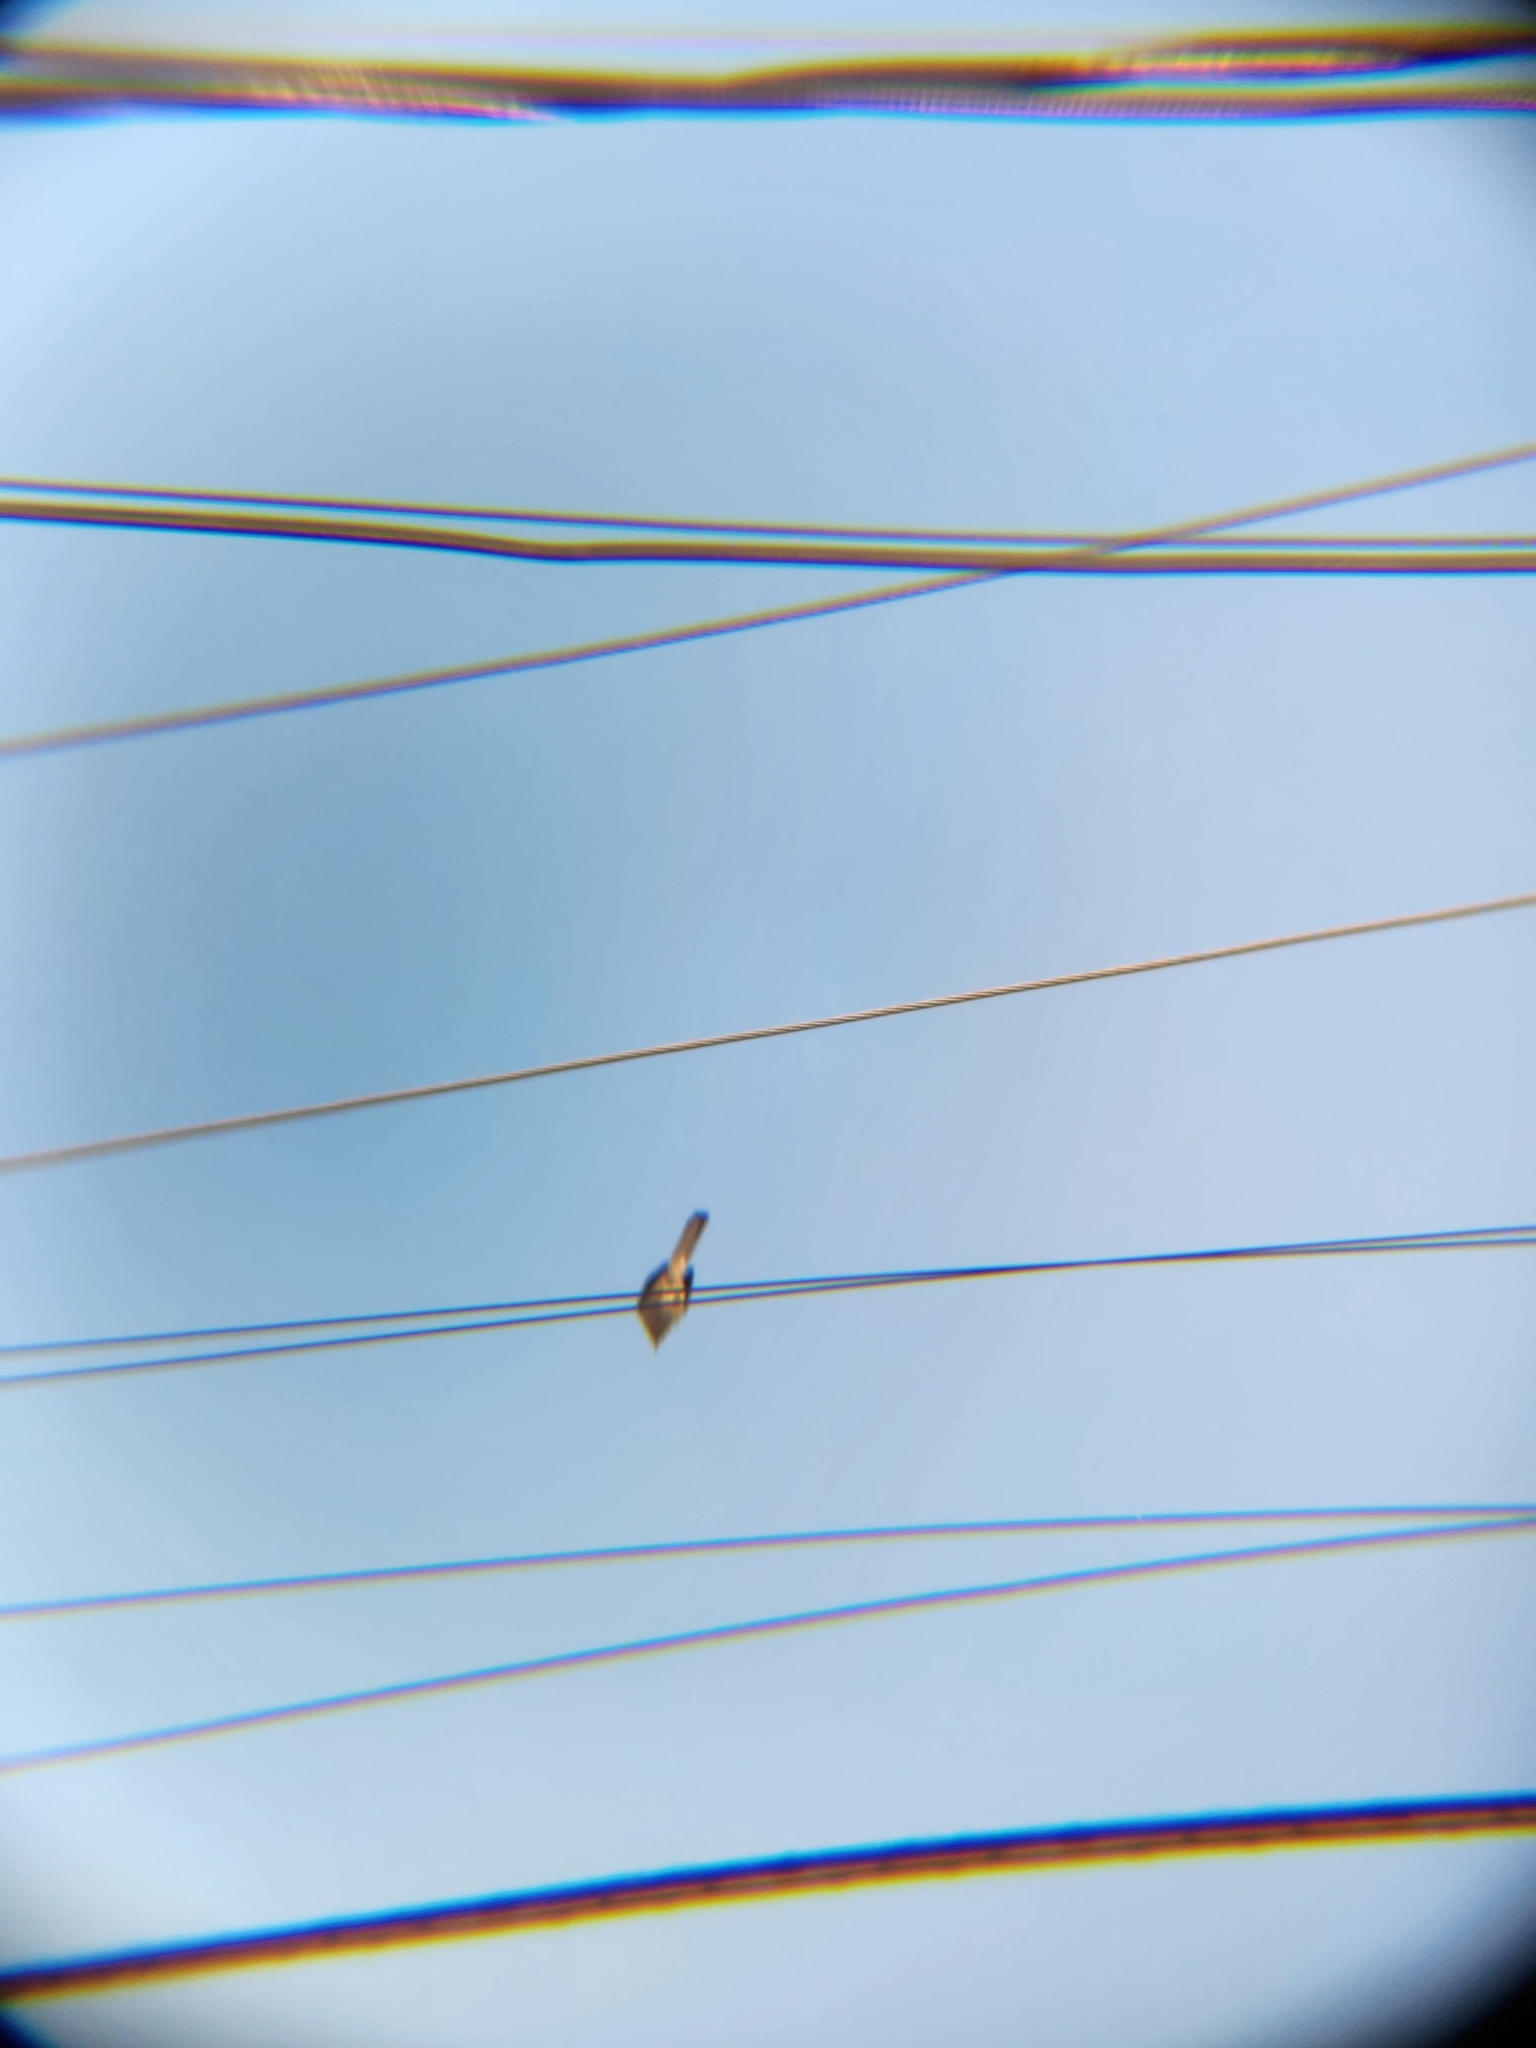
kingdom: Animalia
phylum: Chordata
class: Aves
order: Passeriformes
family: Mimidae
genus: Mimus
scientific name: Mimus polyglottos
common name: Northern mockingbird
